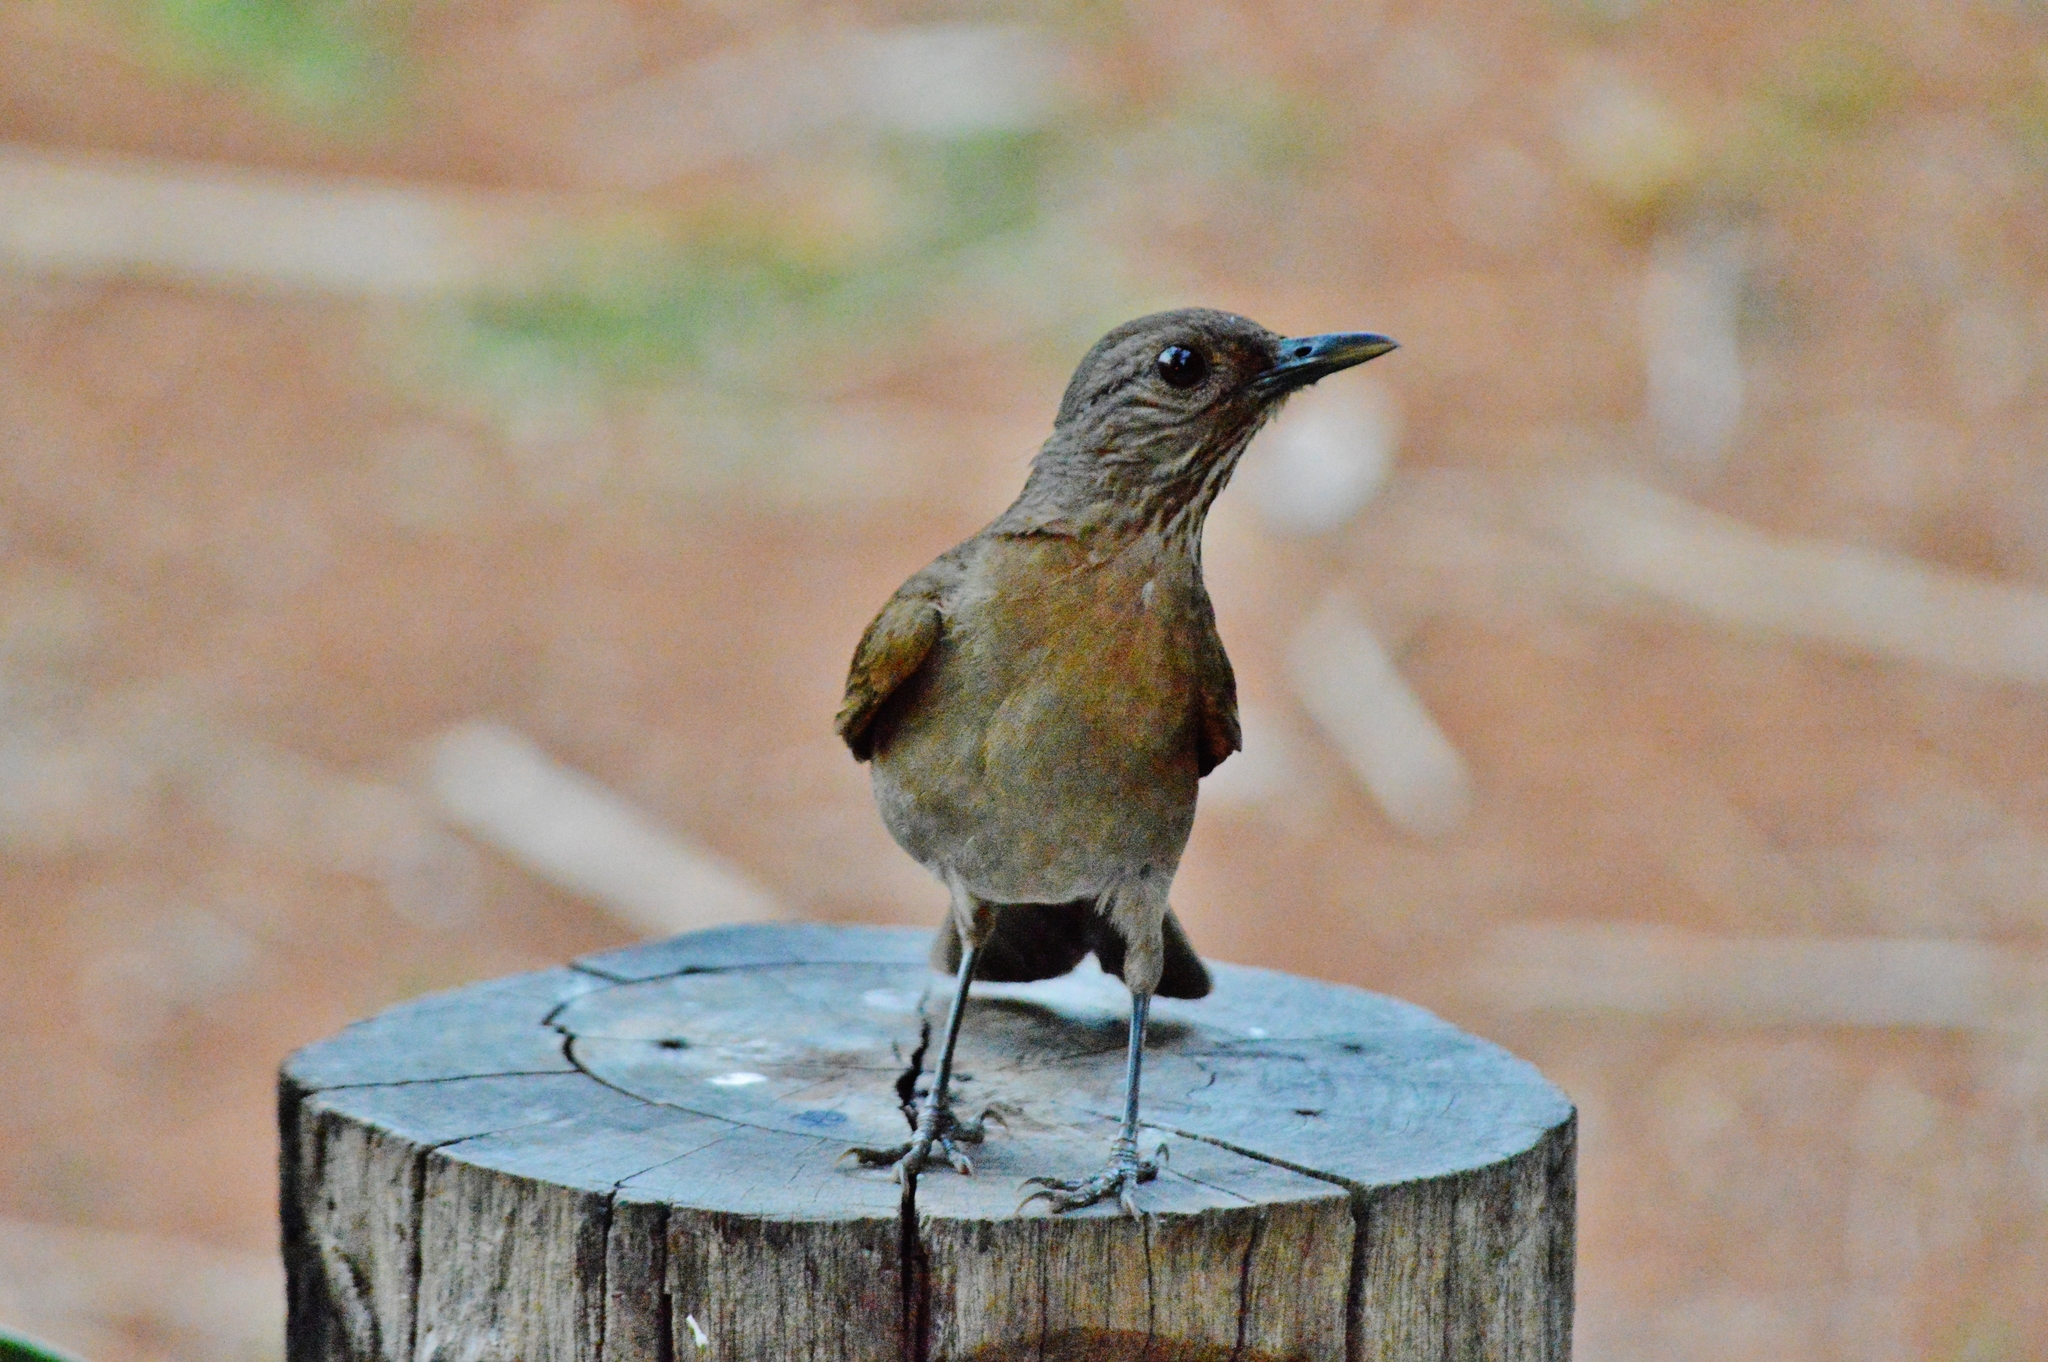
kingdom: Animalia
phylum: Chordata
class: Aves
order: Passeriformes
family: Turdidae
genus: Turdus
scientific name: Turdus leucomelas
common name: Pale-breasted thrush
